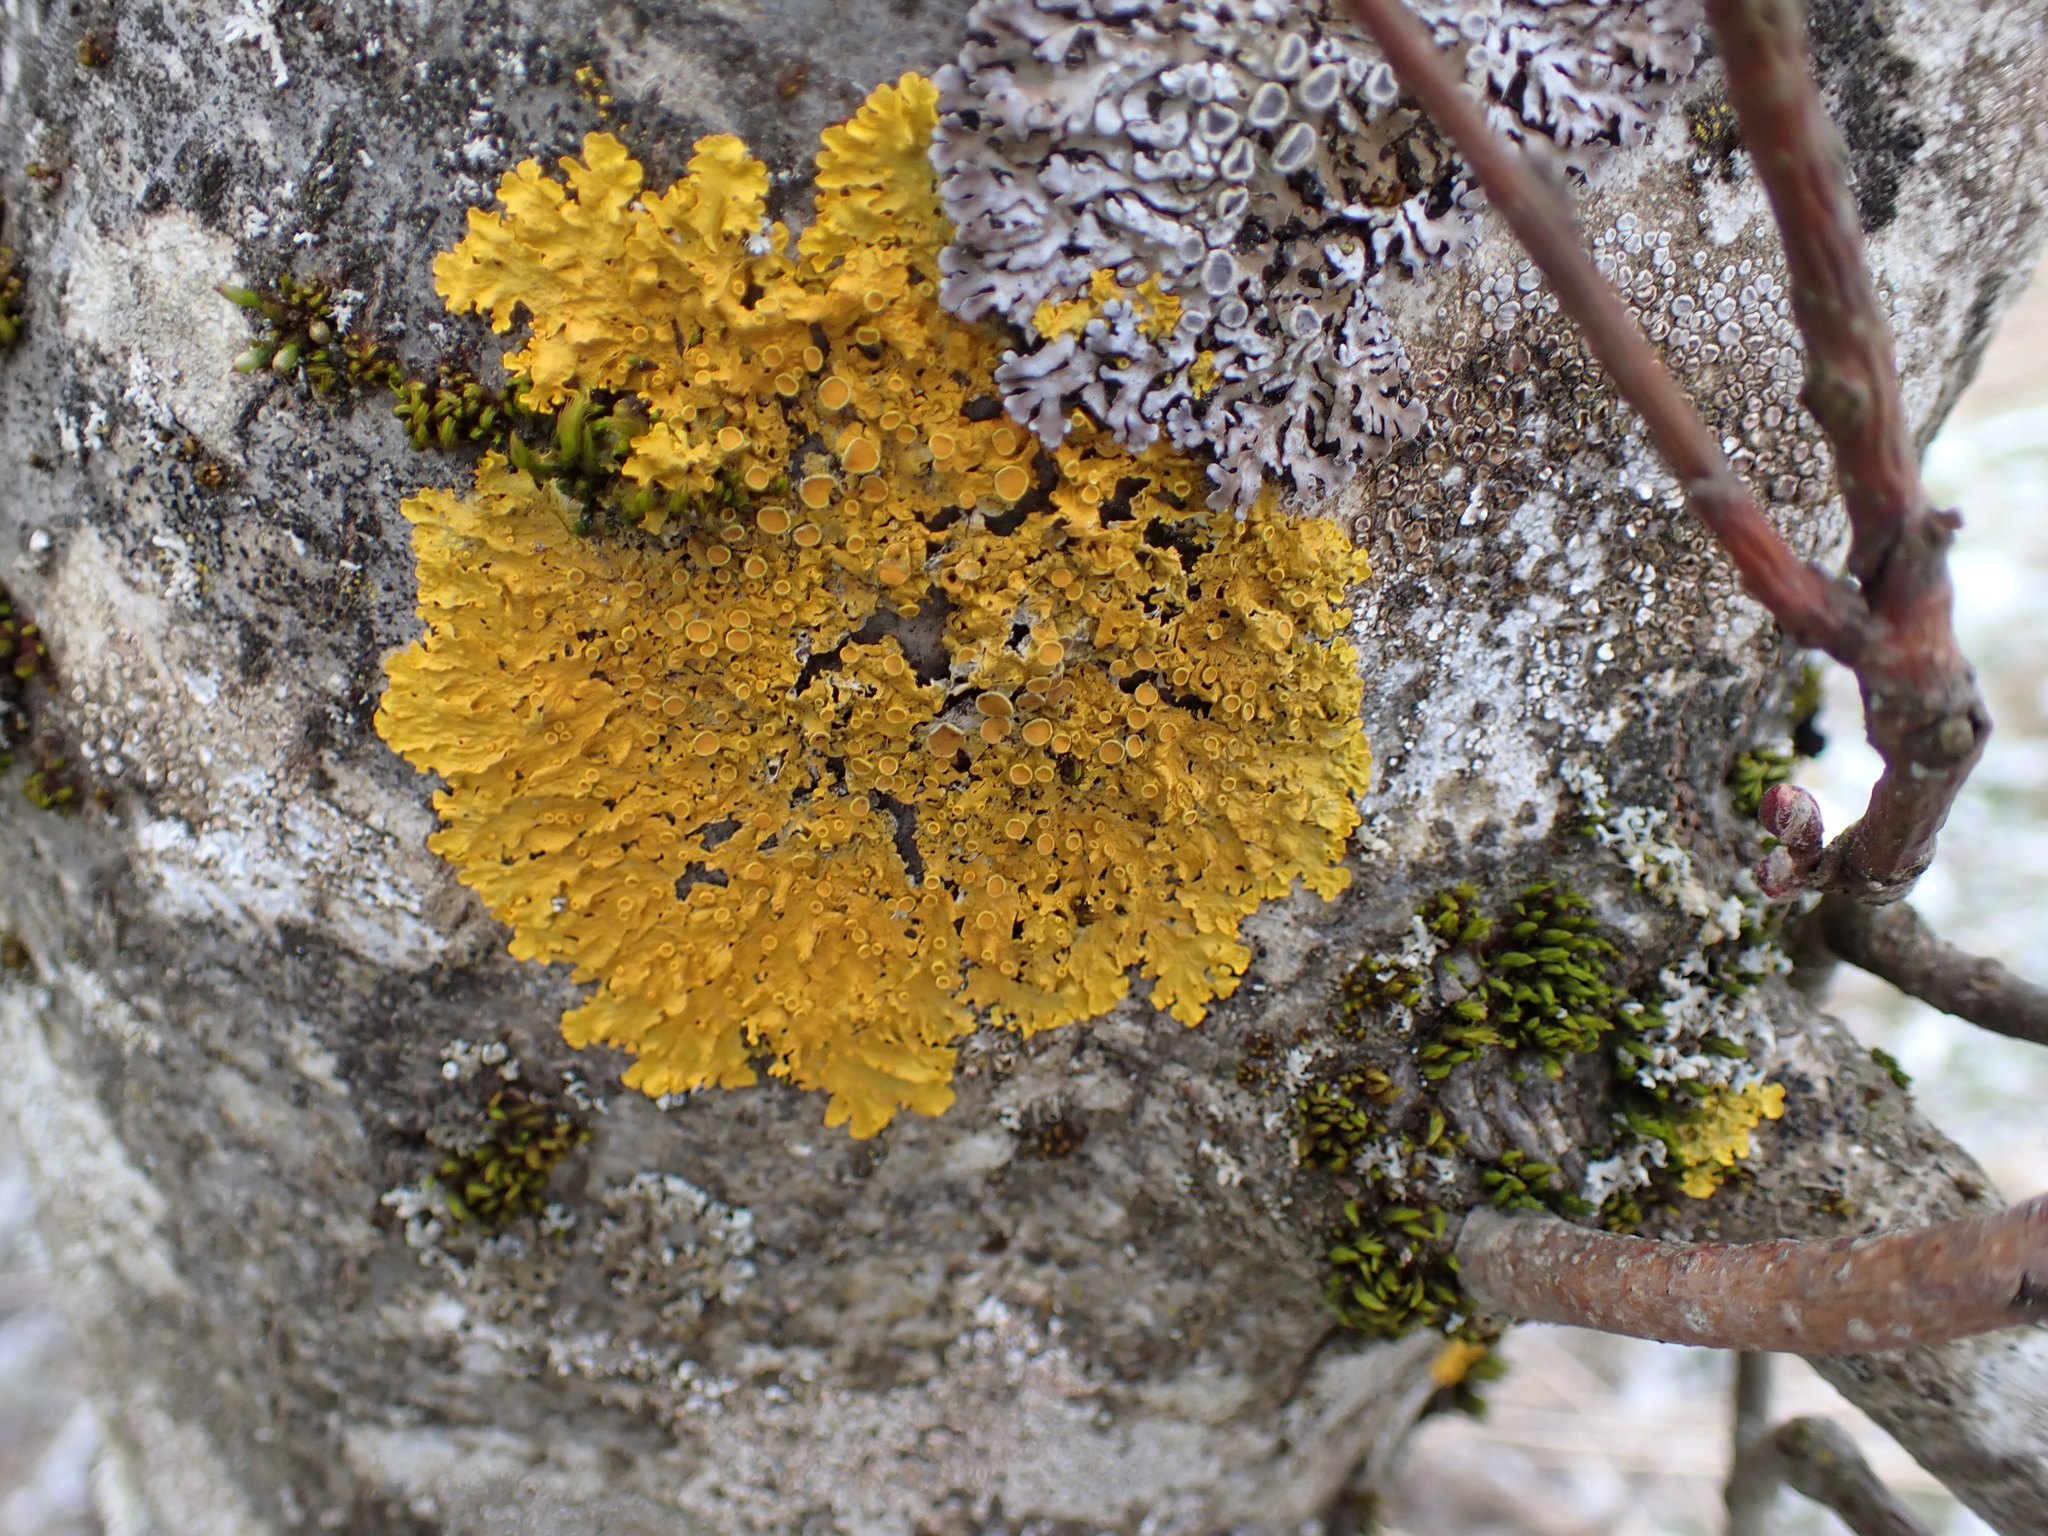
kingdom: Fungi
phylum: Ascomycota
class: Lecanoromycetes
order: Teloschistales
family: Teloschistaceae
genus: Xanthoria
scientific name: Xanthoria parietina
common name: Common orange lichen
